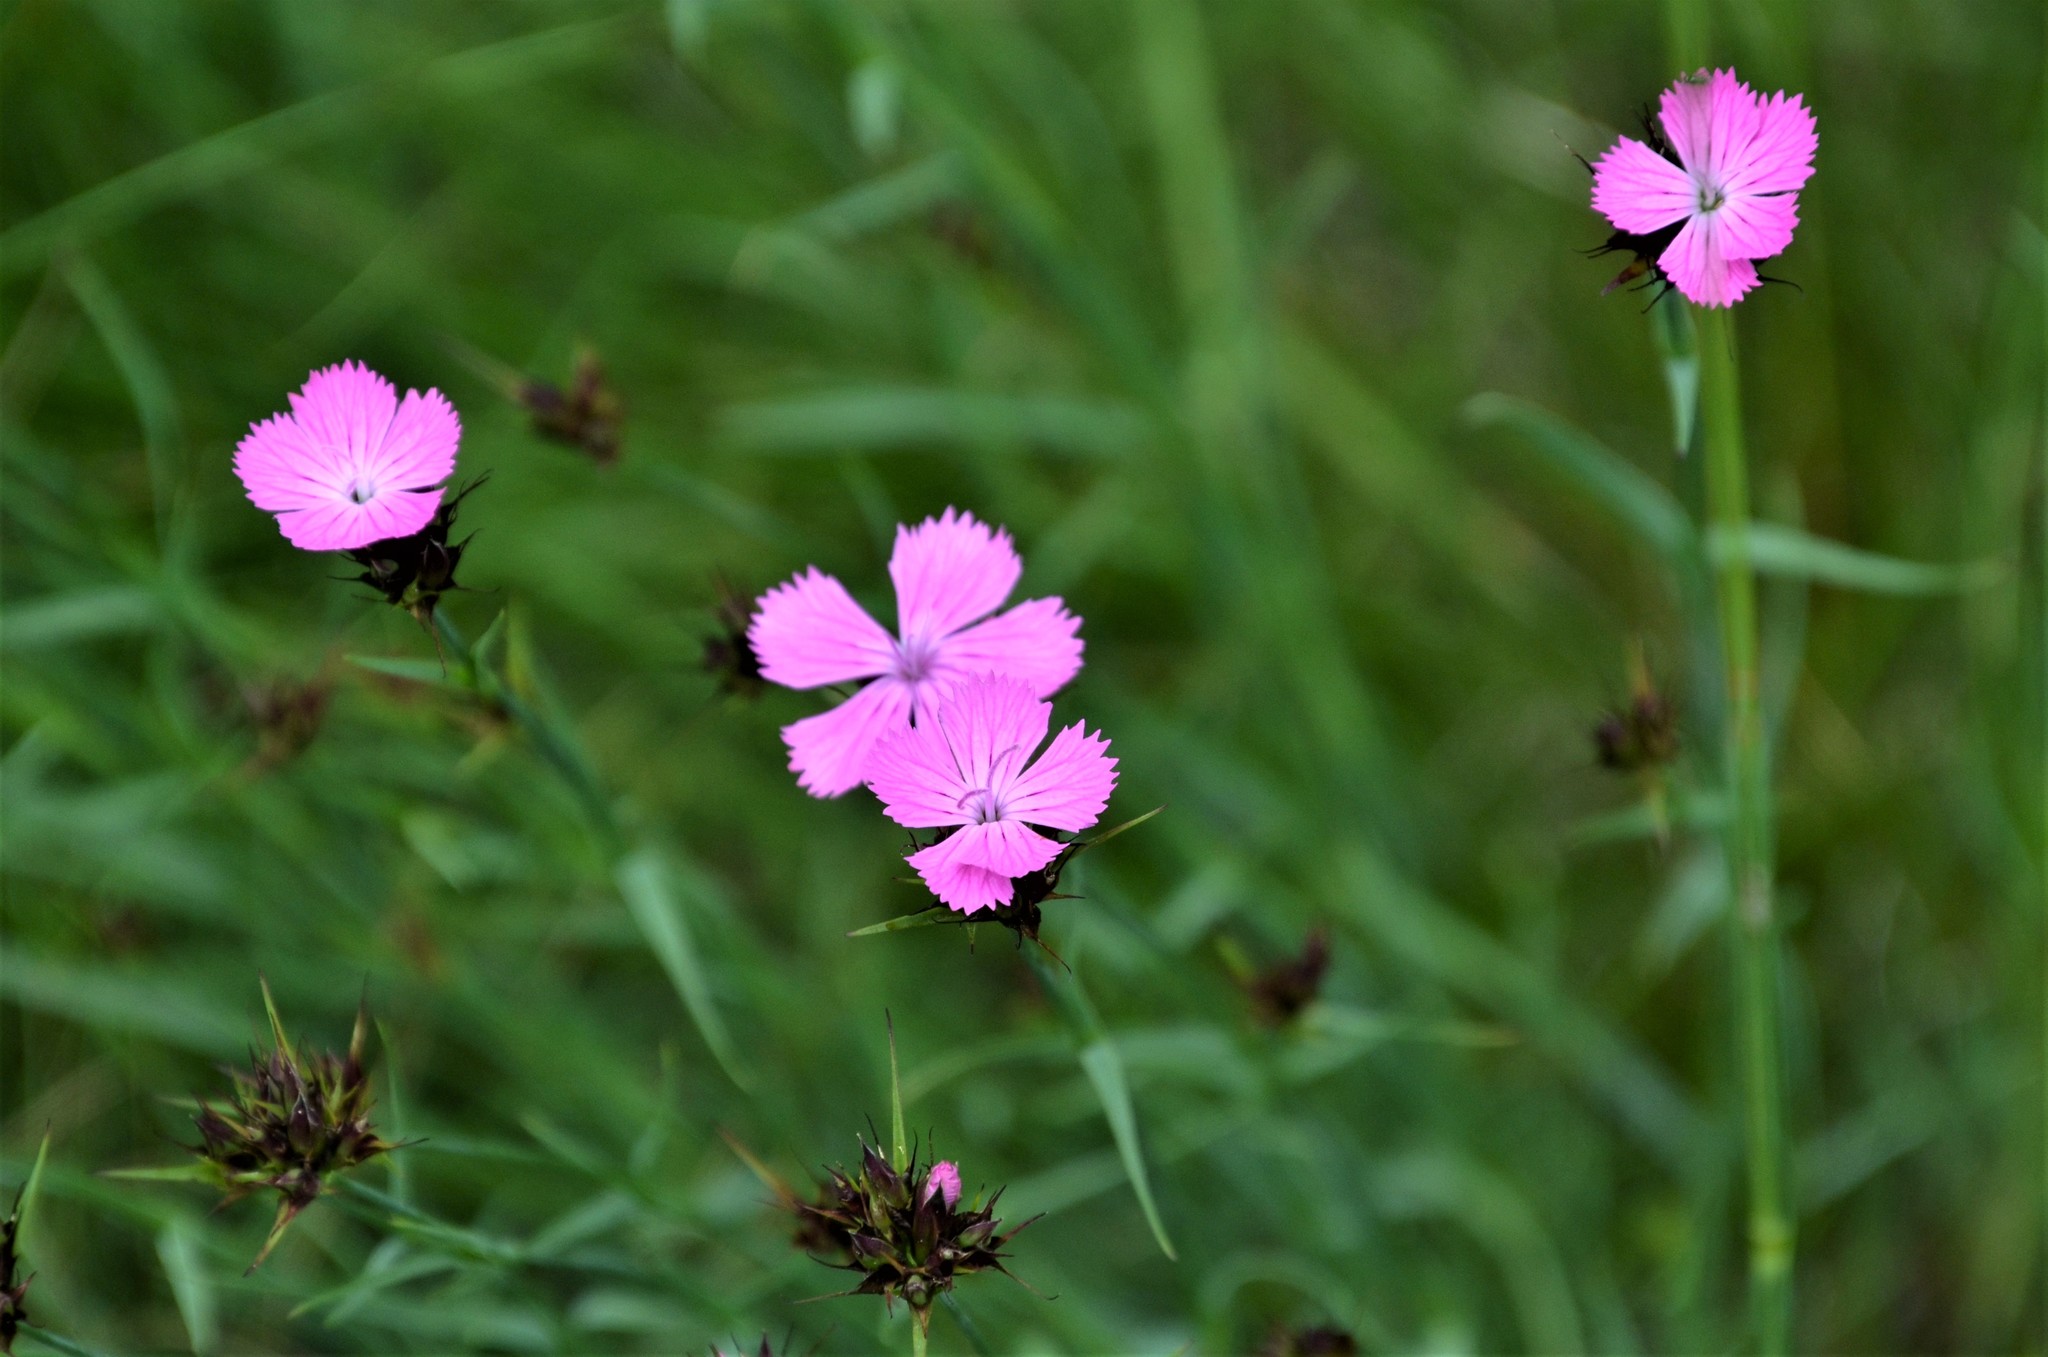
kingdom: Plantae
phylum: Tracheophyta
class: Magnoliopsida
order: Caryophyllales
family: Caryophyllaceae
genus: Dianthus
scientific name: Dianthus carthusianorum
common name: Carthusian pink
